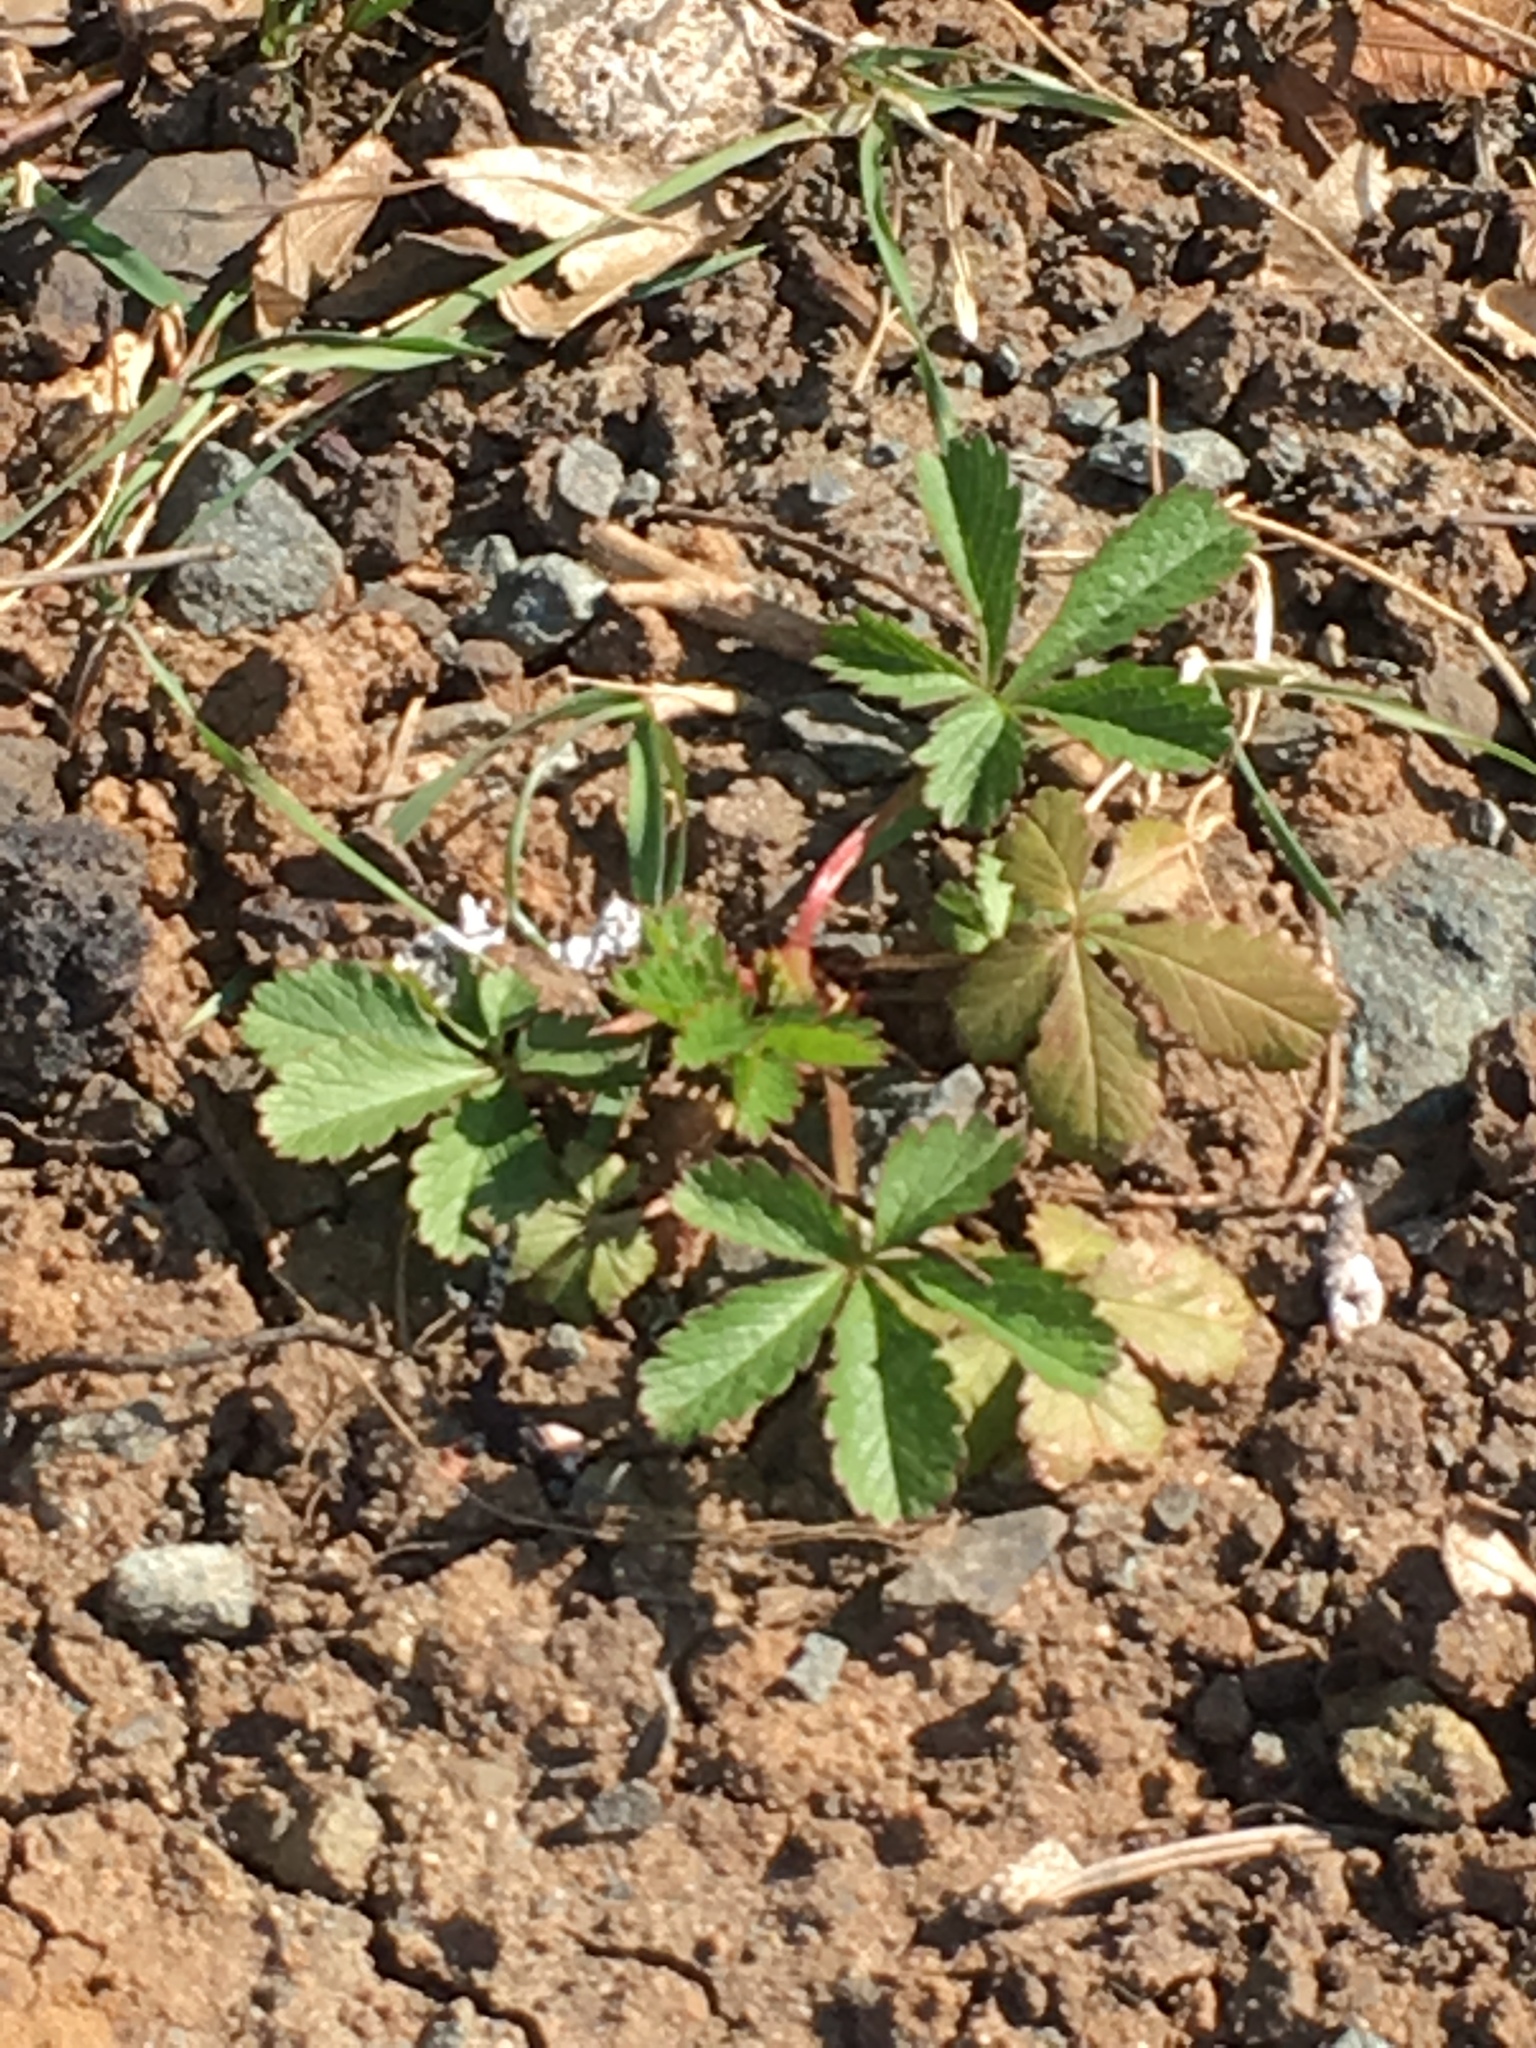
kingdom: Plantae
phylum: Tracheophyta
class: Magnoliopsida
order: Rosales
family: Rosaceae
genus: Potentilla
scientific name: Potentilla reptans
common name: Creeping cinquefoil
